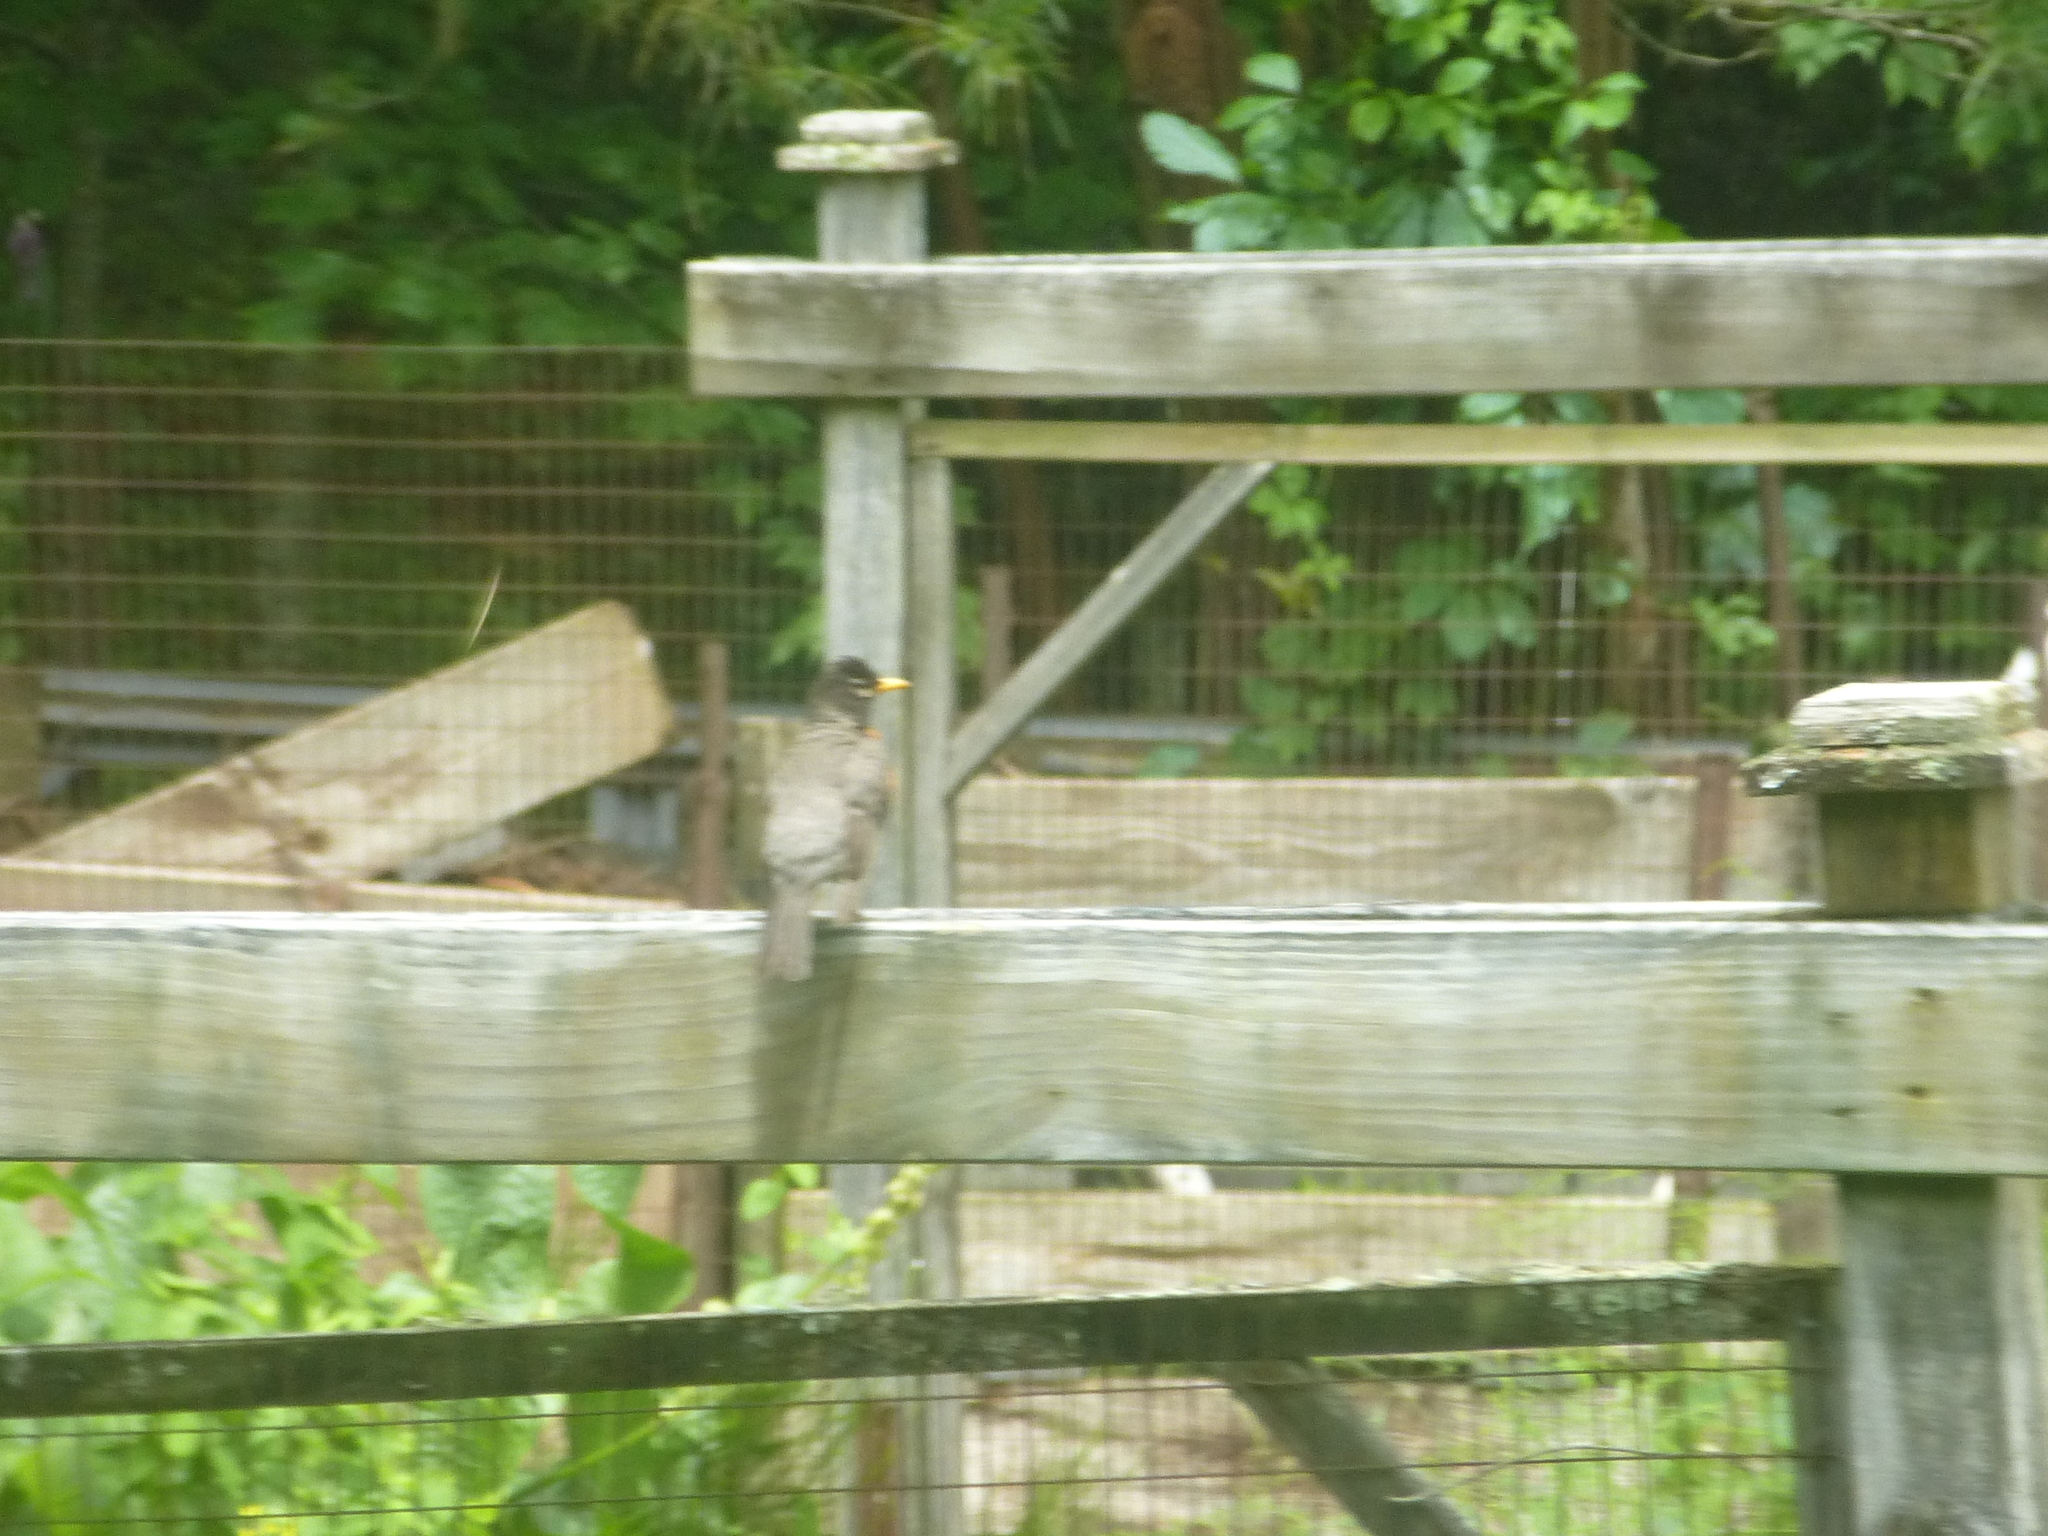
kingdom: Animalia
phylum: Chordata
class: Aves
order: Passeriformes
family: Turdidae
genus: Turdus
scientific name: Turdus migratorius
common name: American robin
